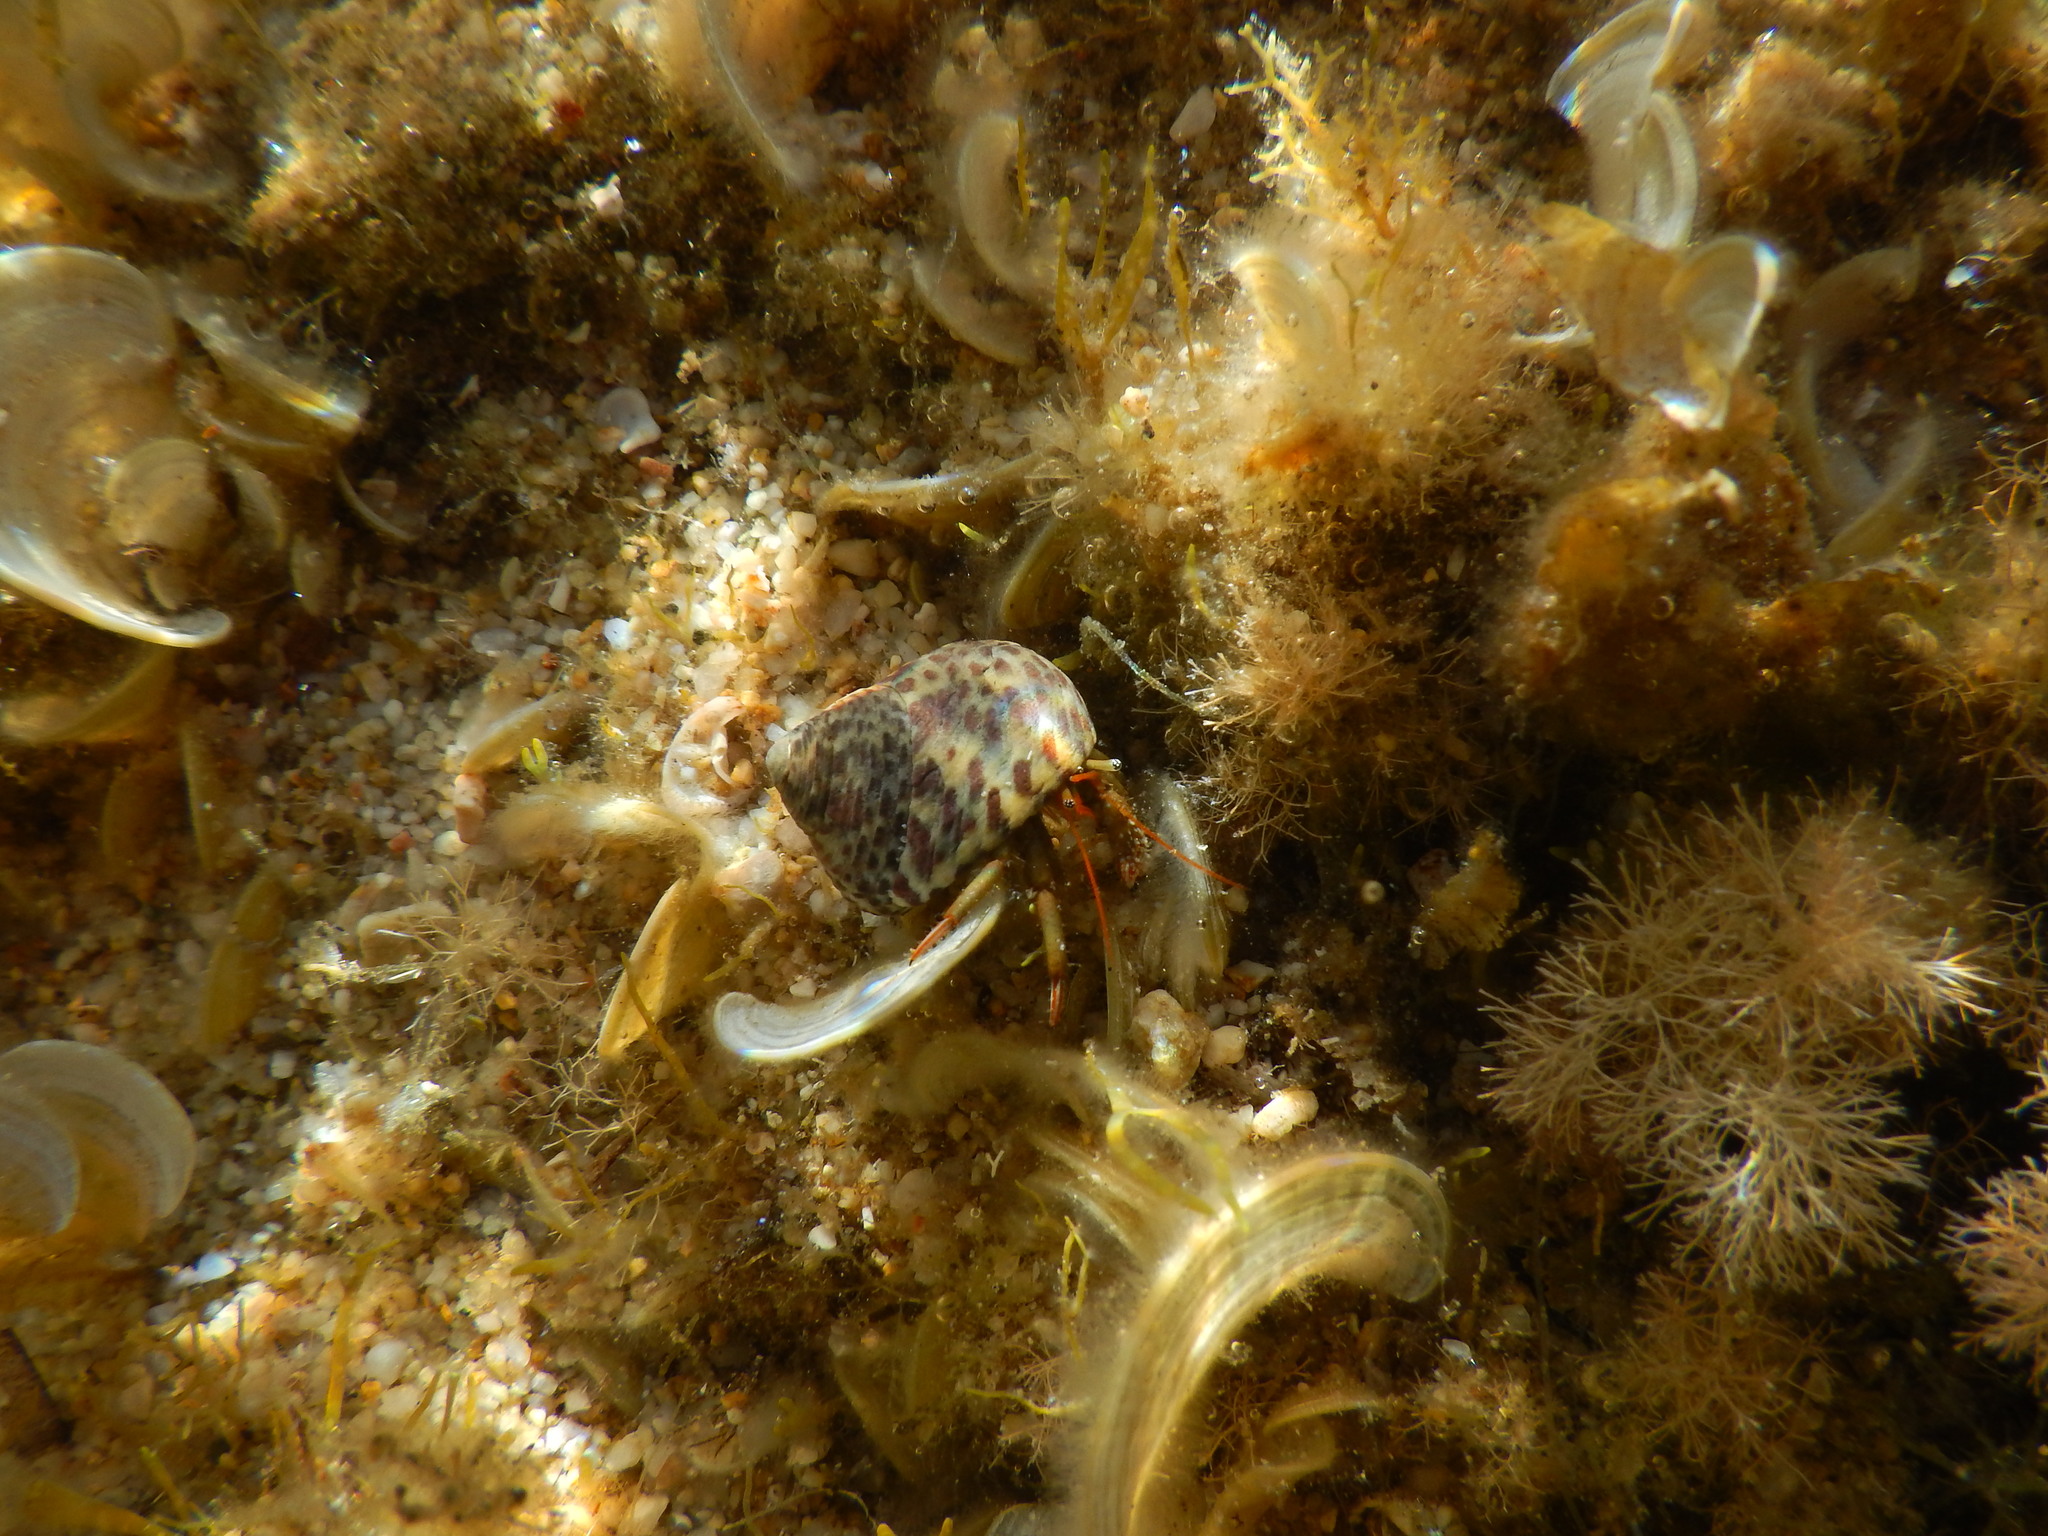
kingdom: Animalia
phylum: Arthropoda
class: Malacostraca
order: Decapoda
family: Diogenidae
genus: Clibanarius
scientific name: Clibanarius erythropus
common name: Hermit crab
